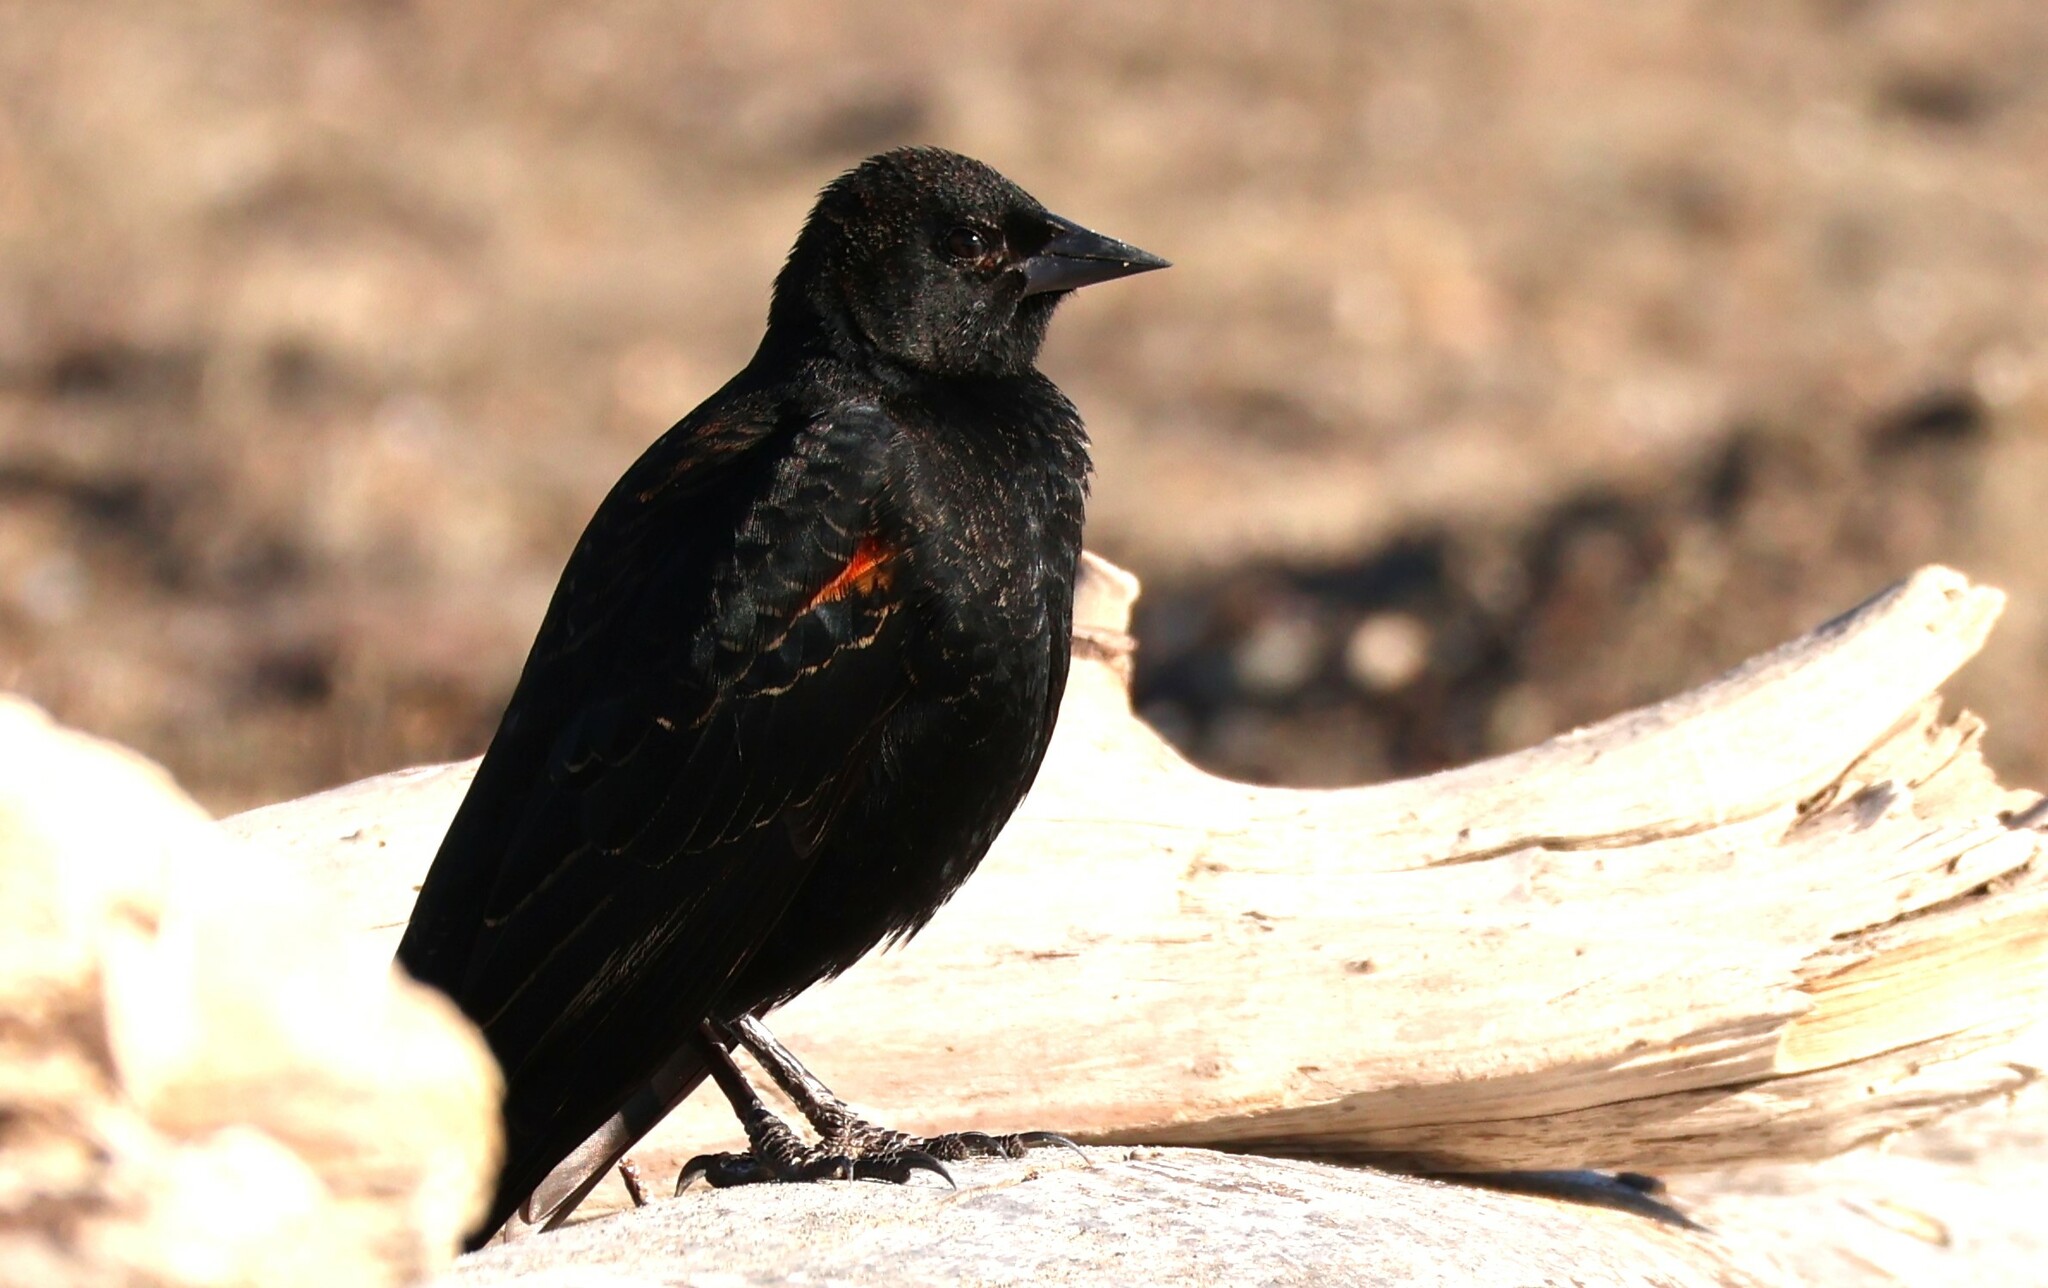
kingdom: Animalia
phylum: Chordata
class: Aves
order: Passeriformes
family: Icteridae
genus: Agelaius
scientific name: Agelaius phoeniceus
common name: Red-winged blackbird
